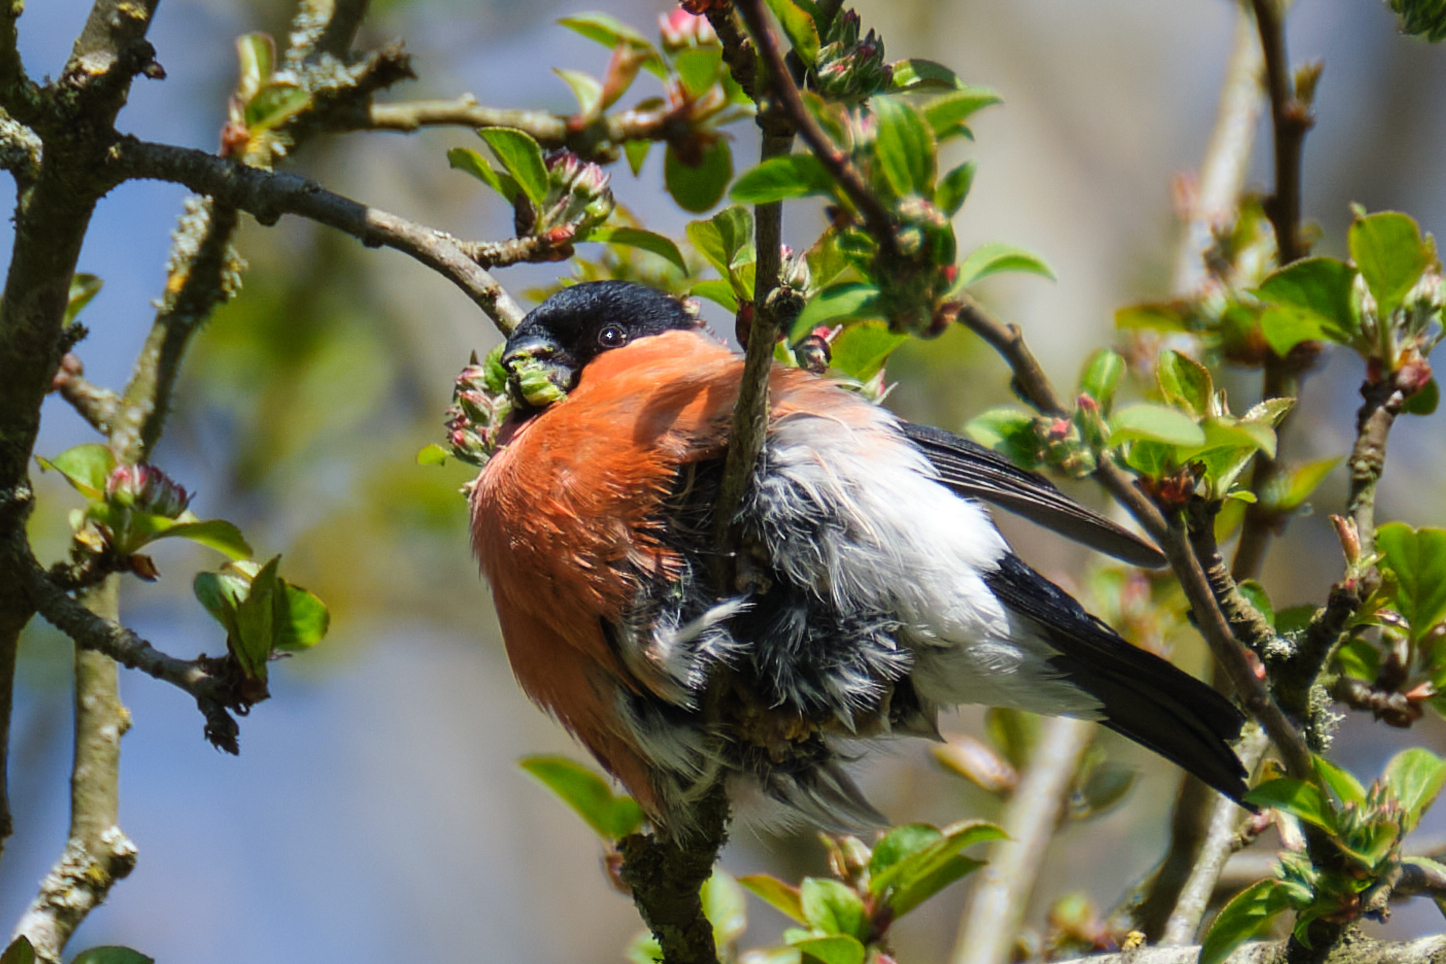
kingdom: Animalia
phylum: Chordata
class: Aves
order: Passeriformes
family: Fringillidae
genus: Pyrrhula
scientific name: Pyrrhula pyrrhula
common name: Eurasian bullfinch
